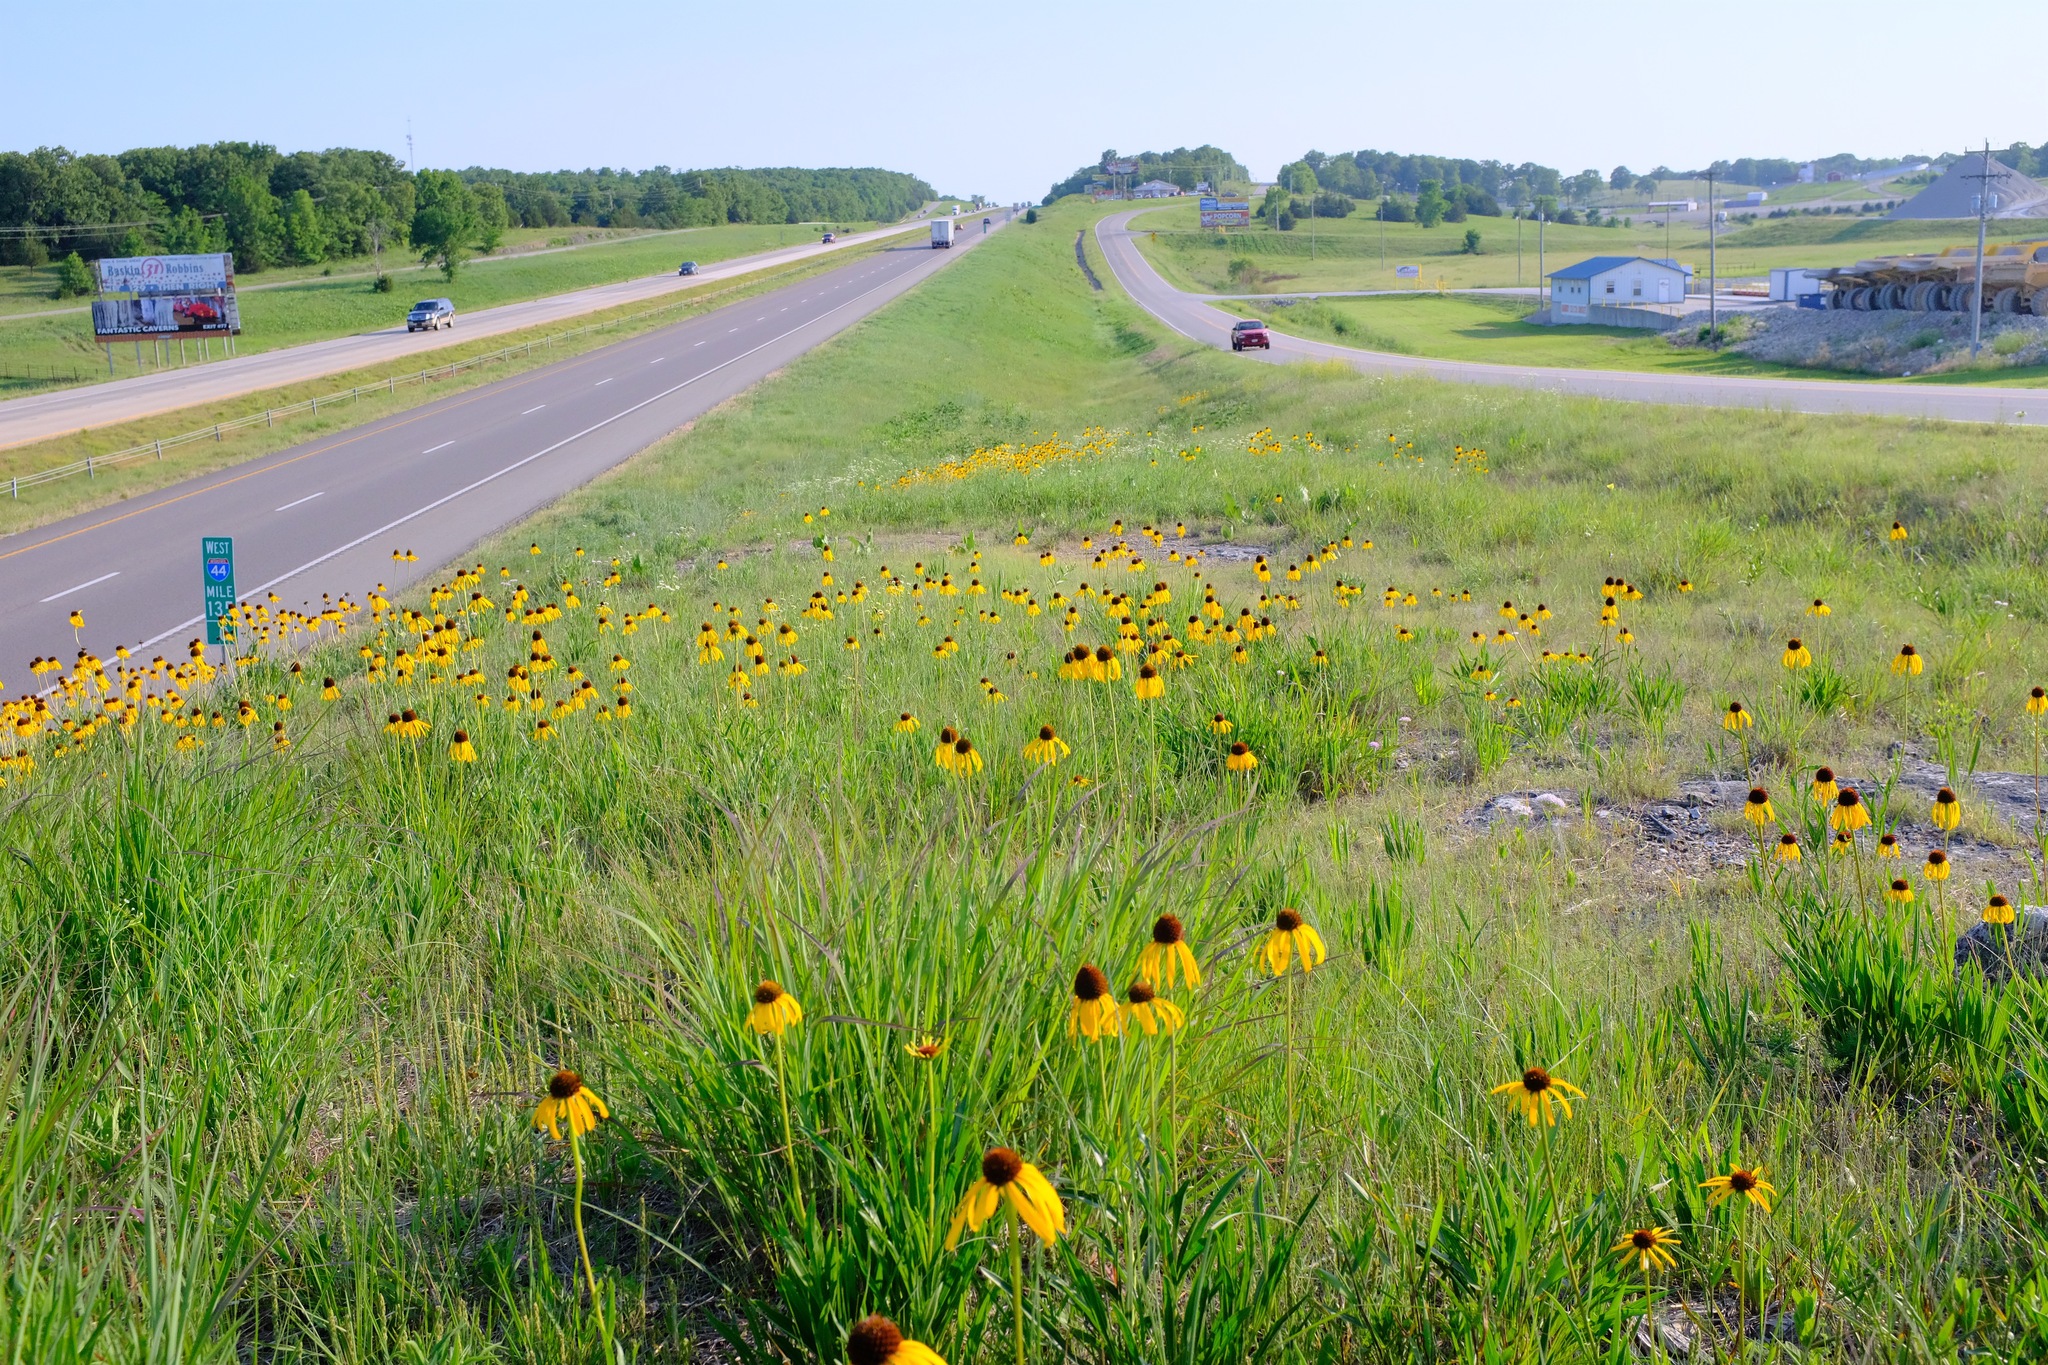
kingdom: Plantae
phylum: Tracheophyta
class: Magnoliopsida
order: Asterales
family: Asteraceae
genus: Echinacea
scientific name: Echinacea paradoxa
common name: Bush's purple-coneflower
